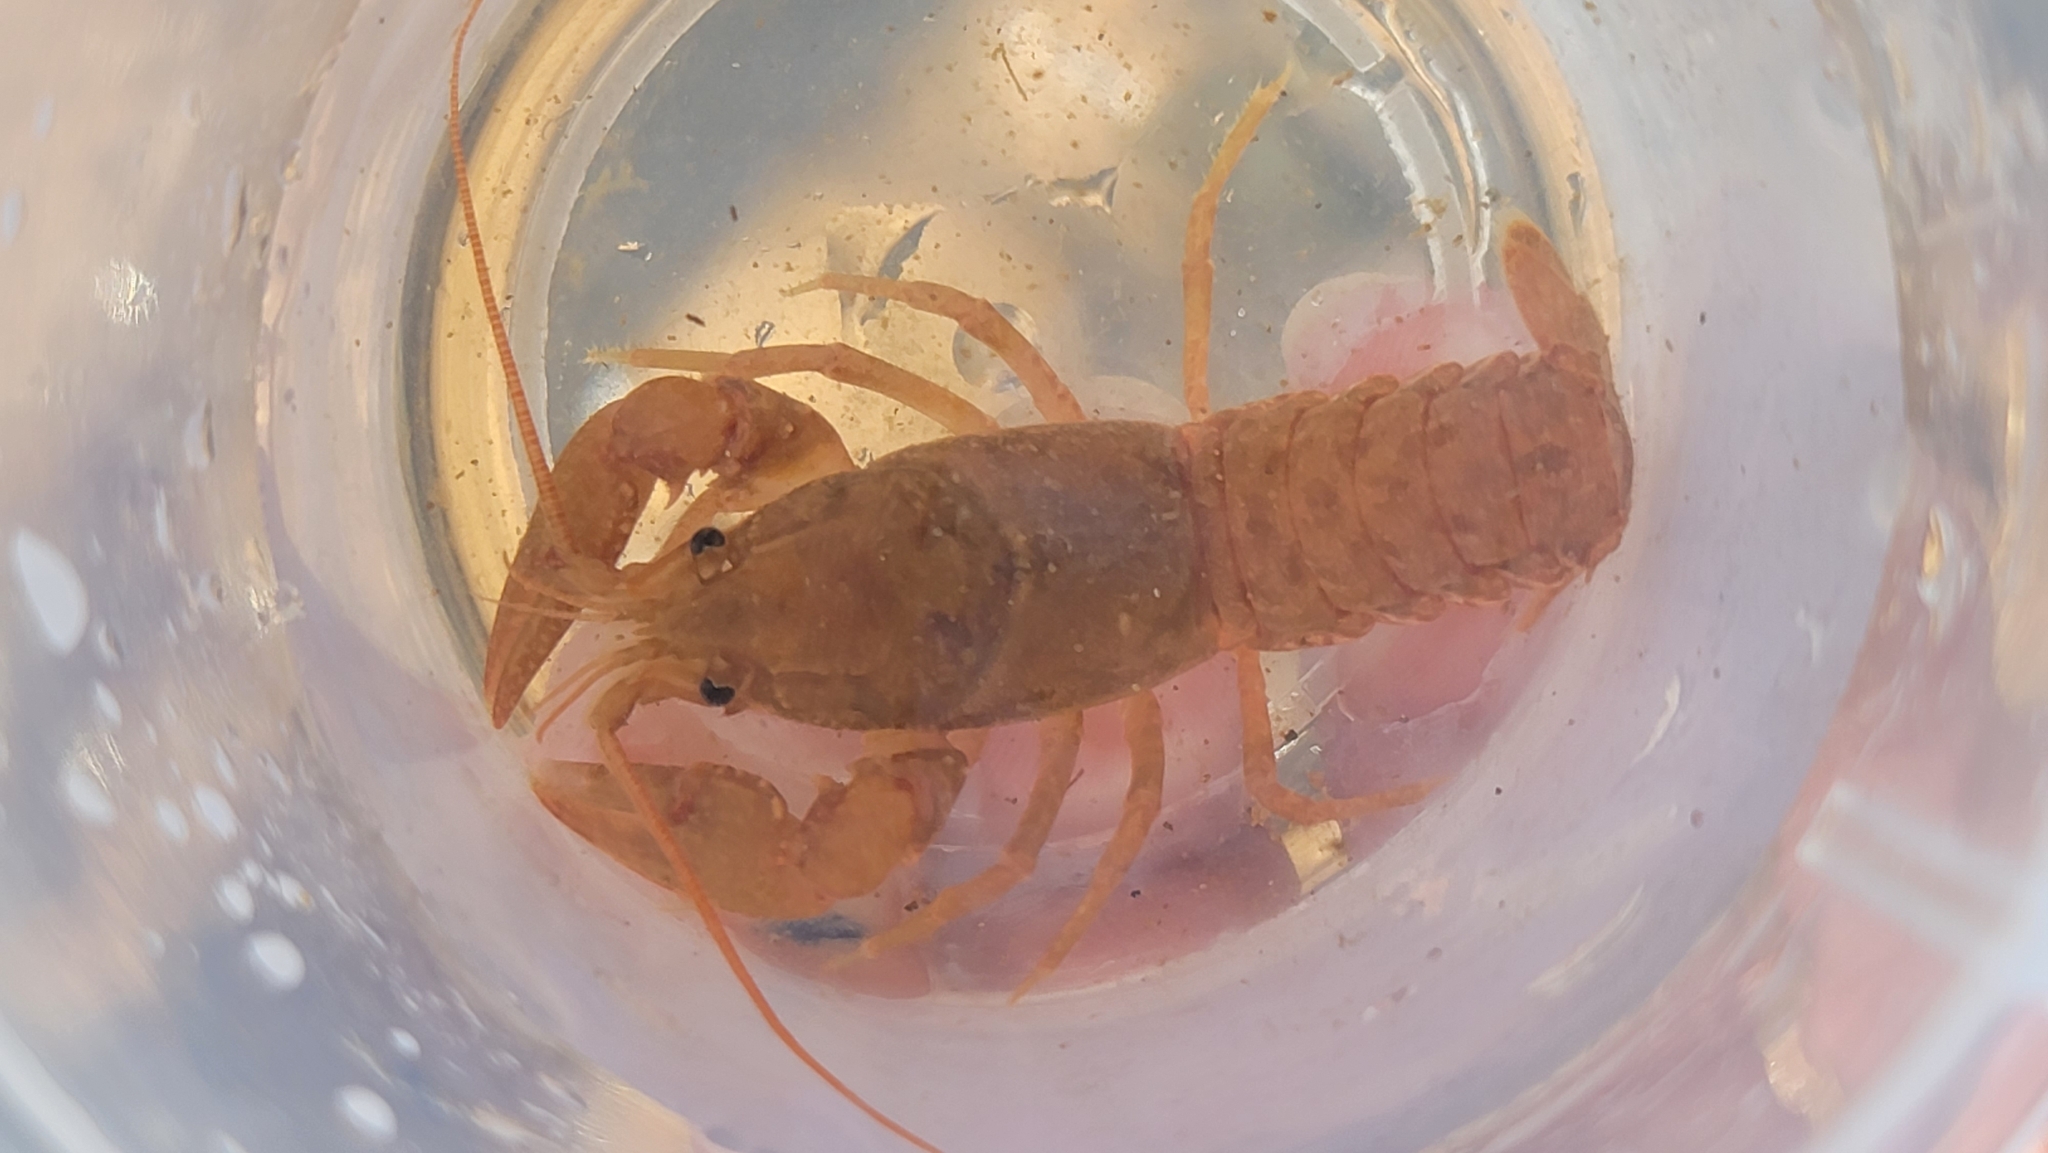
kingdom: Animalia
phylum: Arthropoda
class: Malacostraca
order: Decapoda
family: Cambaridae
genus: Cambarus
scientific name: Cambarus johni
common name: Carolina foothills crayfish
